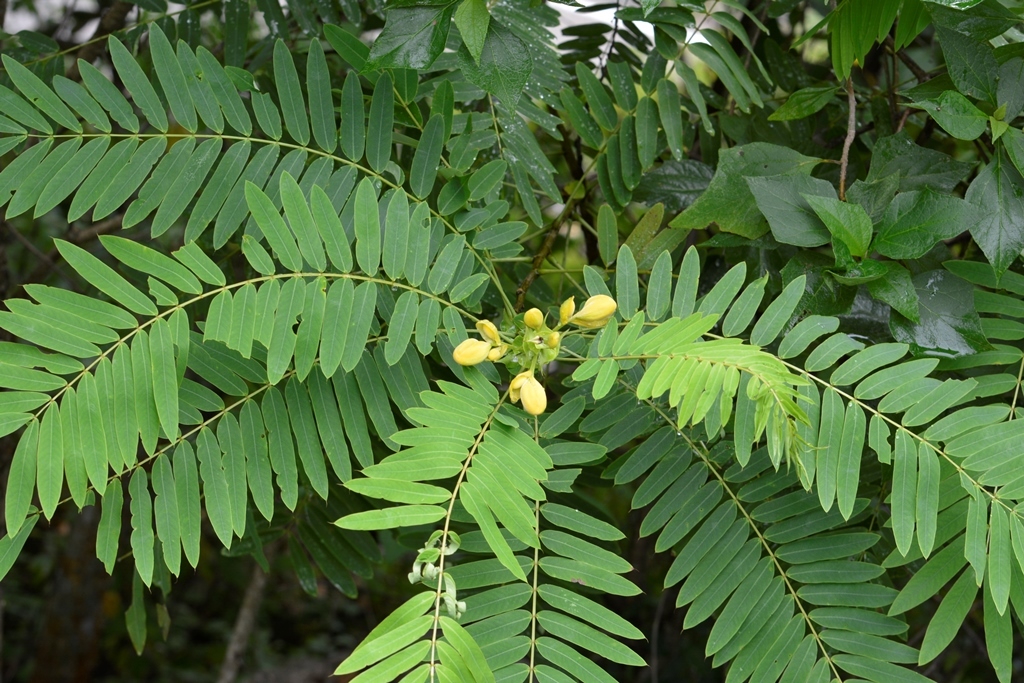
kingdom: Plantae
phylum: Tracheophyta
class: Magnoliopsida
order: Fabales
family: Fabaceae
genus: Senna
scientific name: Senna centranthera
